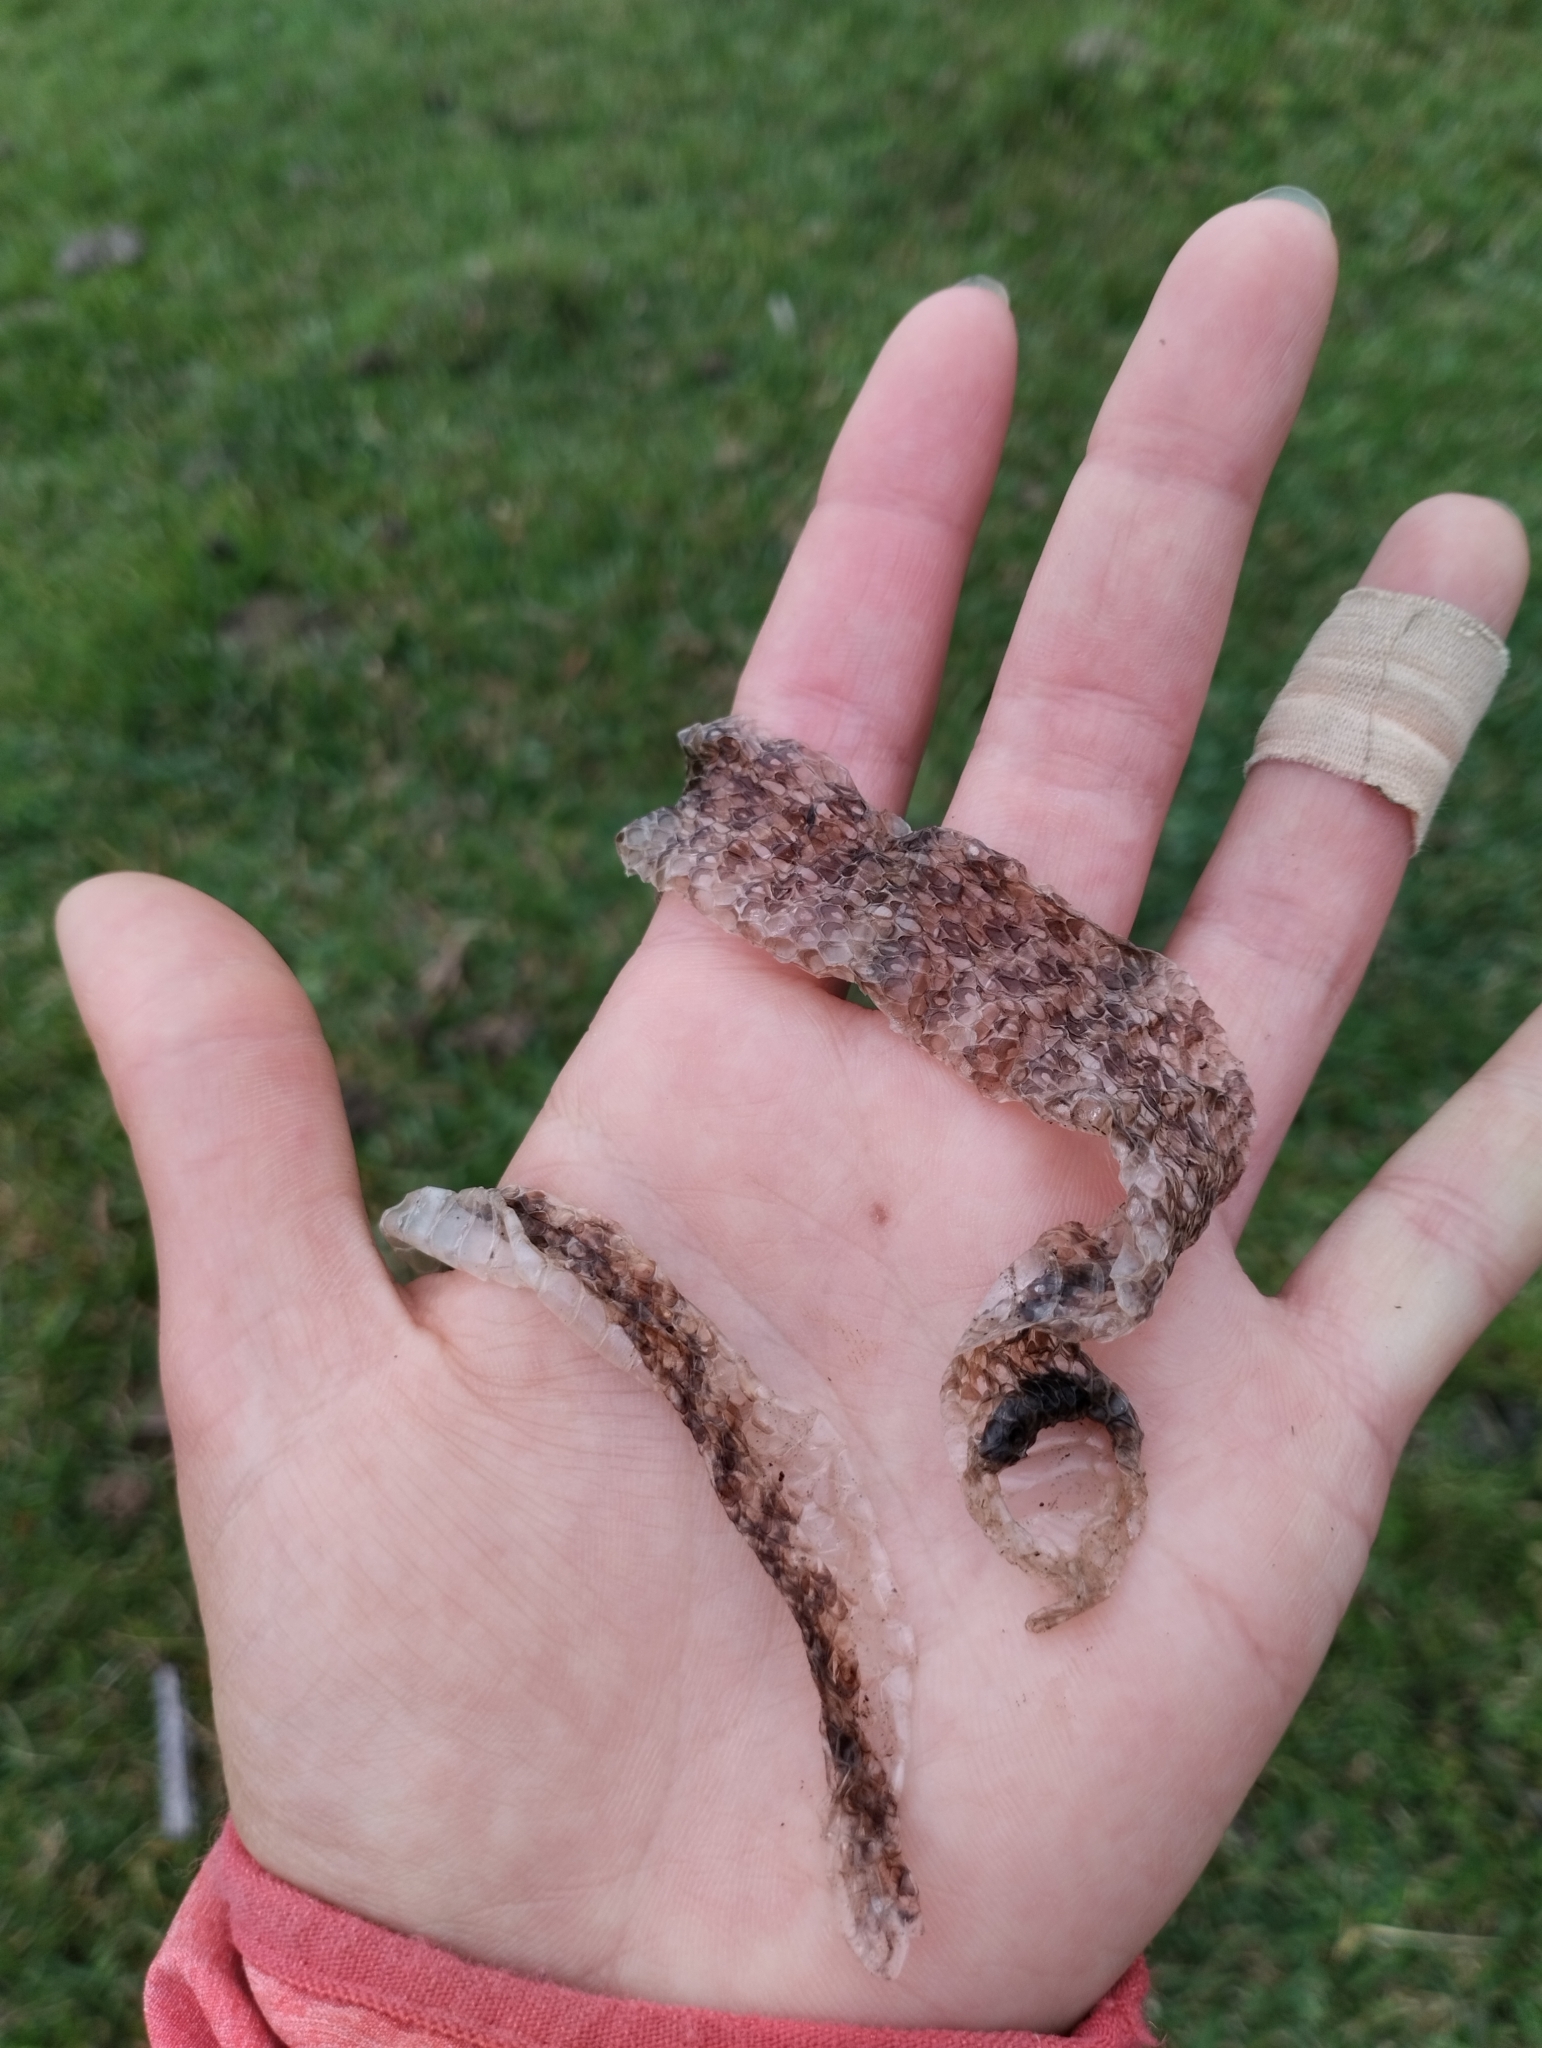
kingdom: Animalia
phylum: Chordata
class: Squamata
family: Colubridae
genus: Lygophis
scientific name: Lygophis anomalus
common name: English common name not available
